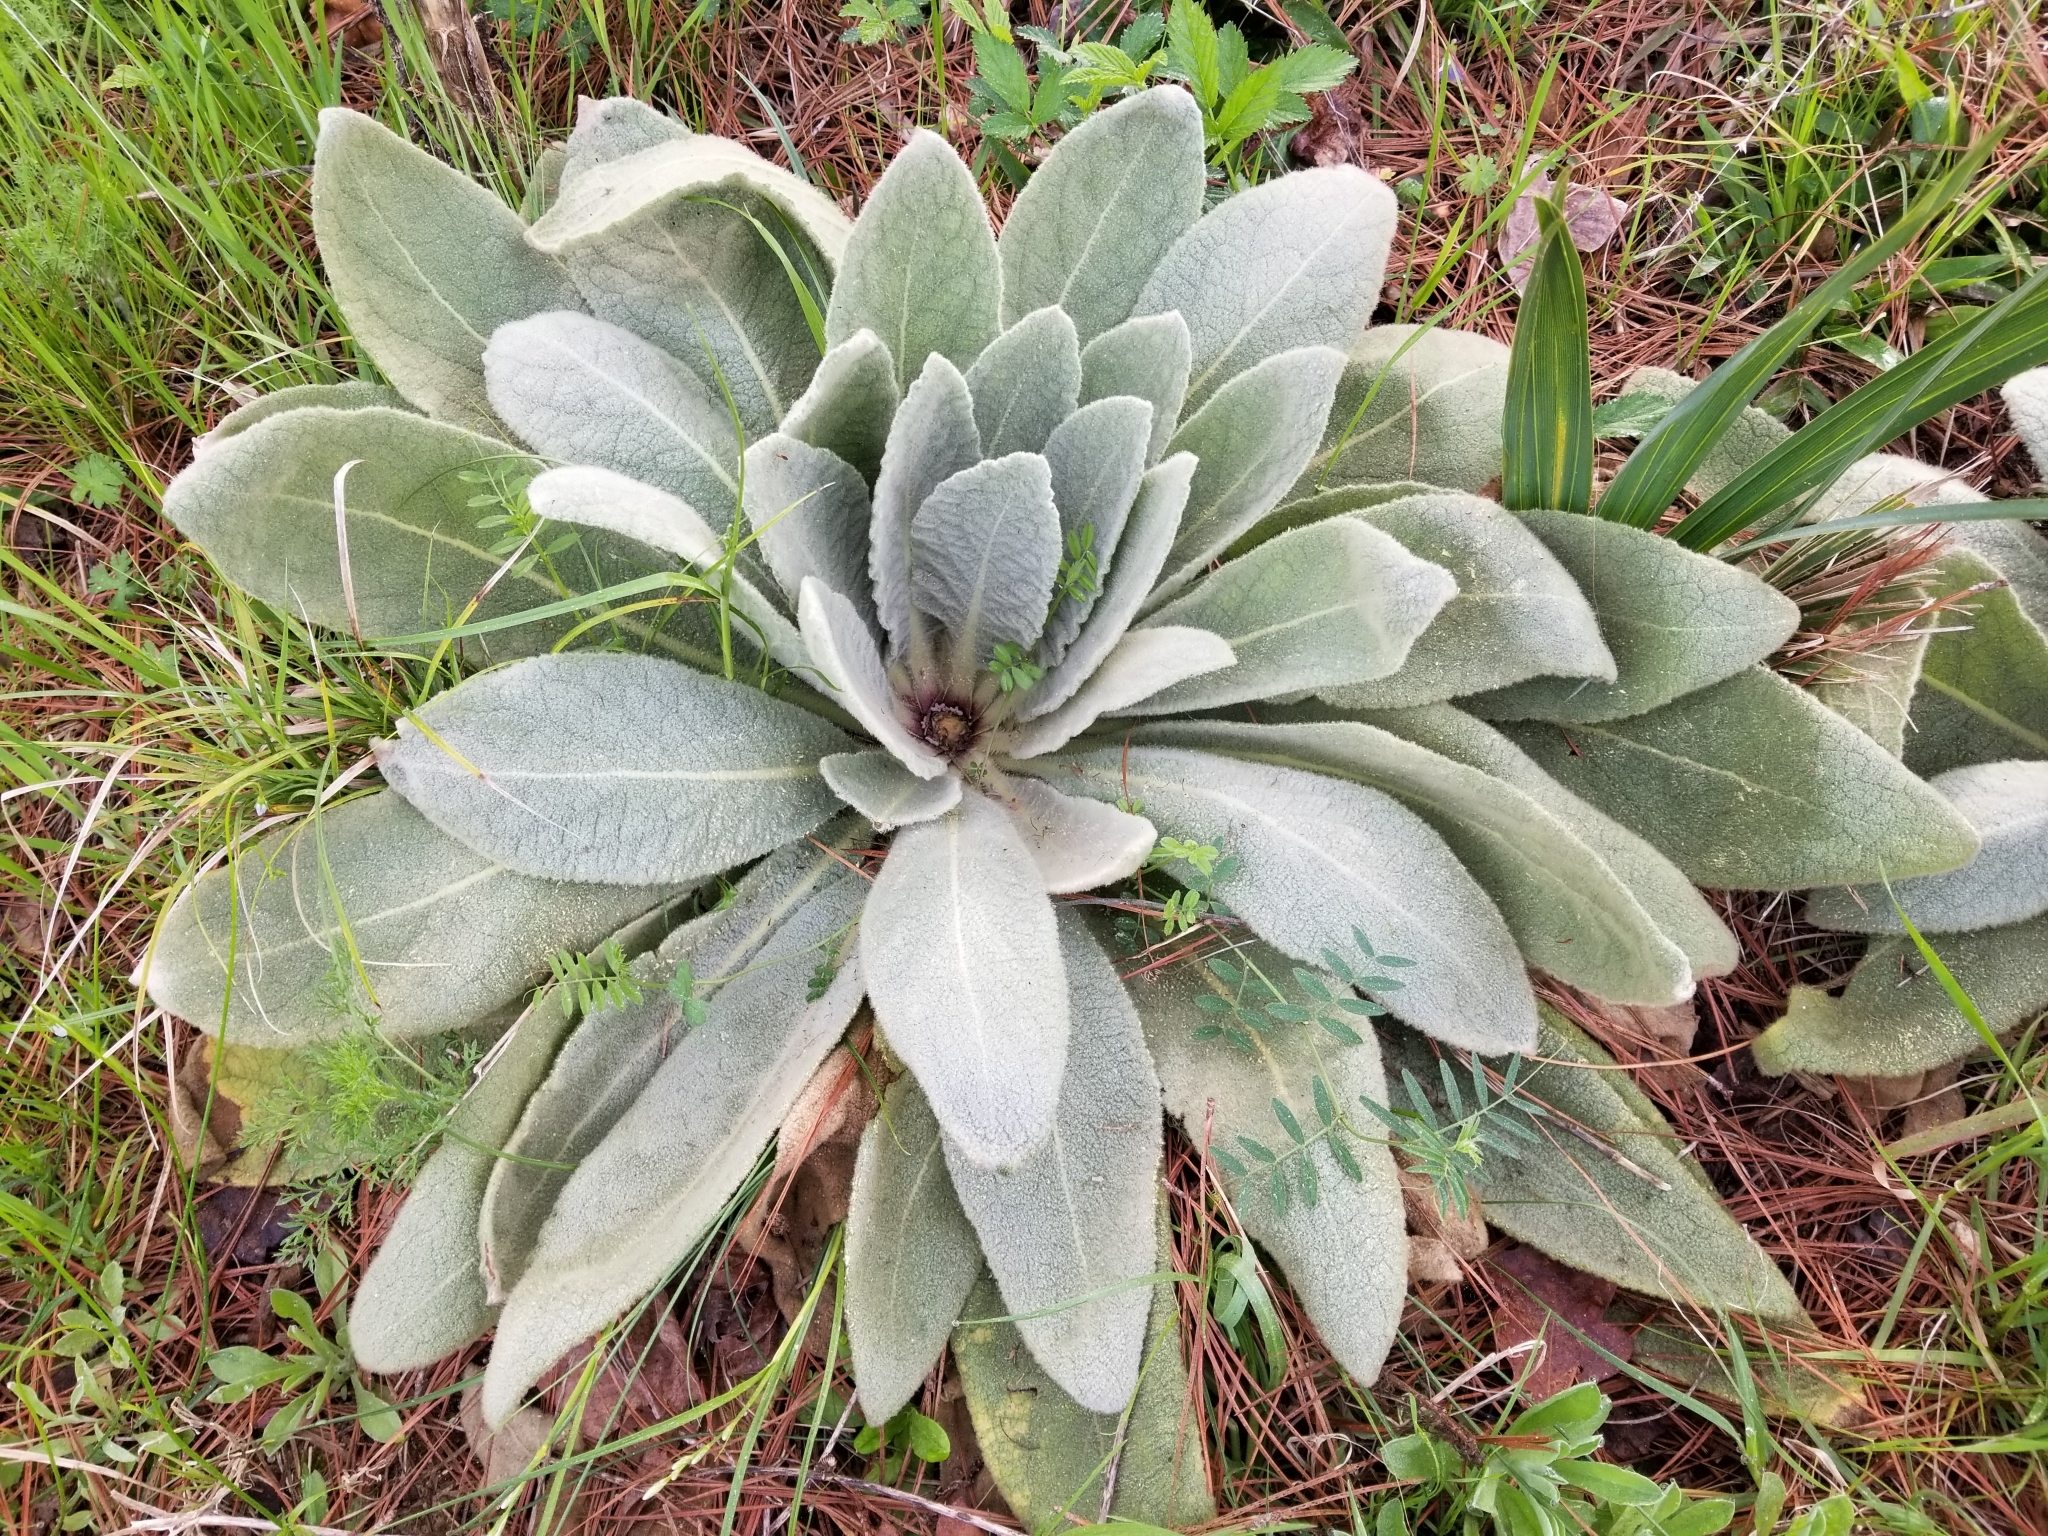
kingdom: Plantae
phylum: Tracheophyta
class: Magnoliopsida
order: Lamiales
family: Scrophulariaceae
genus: Verbascum
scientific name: Verbascum thapsus
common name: Common mullein
